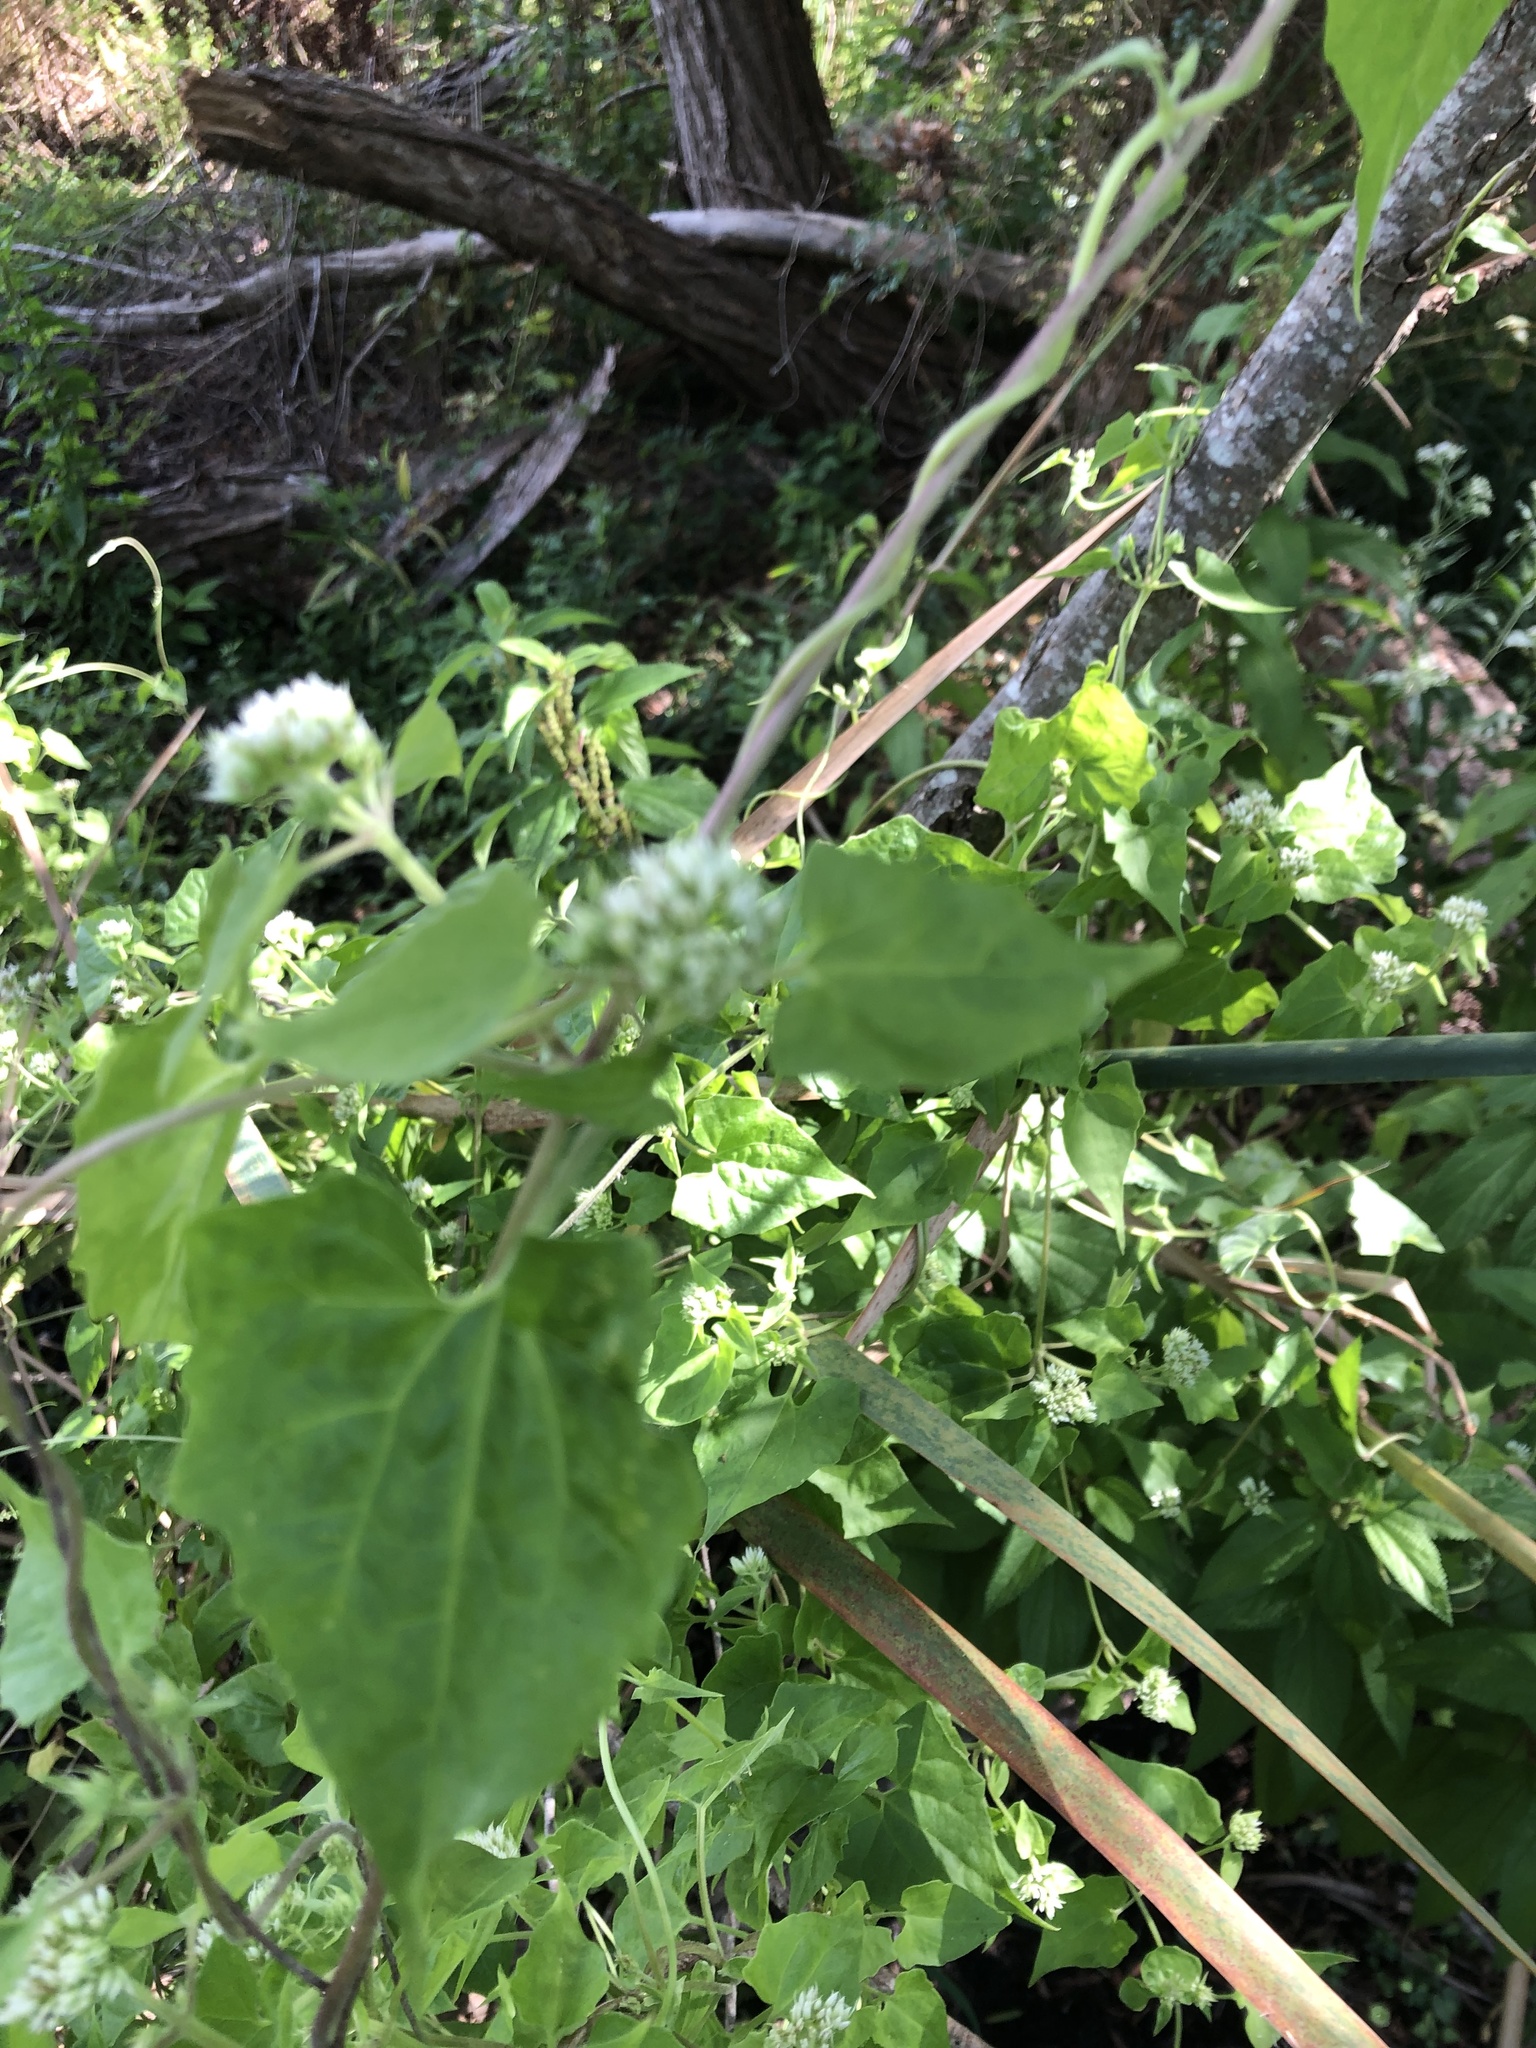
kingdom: Plantae
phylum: Tracheophyta
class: Magnoliopsida
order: Asterales
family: Asteraceae
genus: Mikania
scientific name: Mikania scandens
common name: Climbing hempvine
